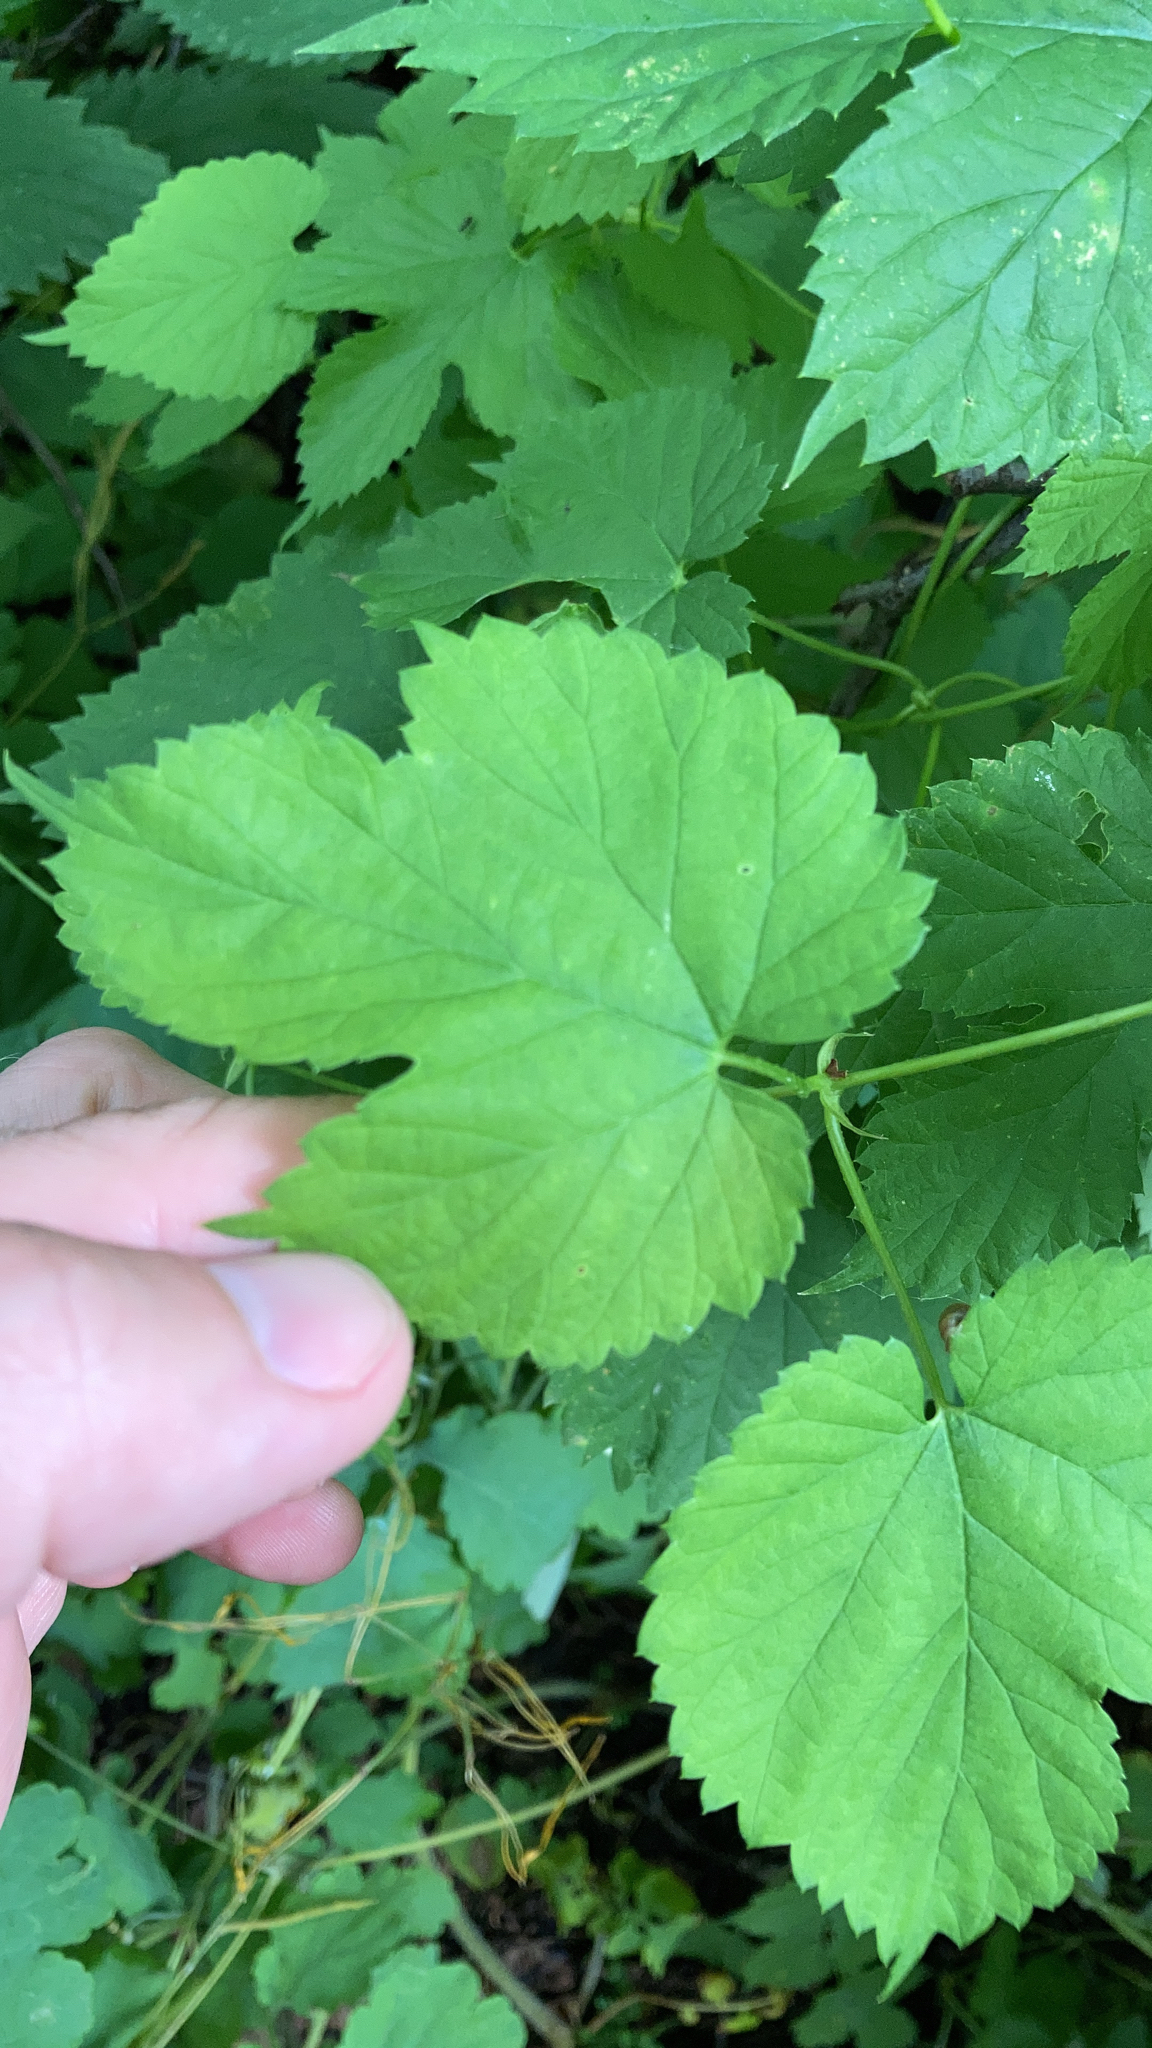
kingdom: Plantae
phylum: Tracheophyta
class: Magnoliopsida
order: Rosales
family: Cannabaceae
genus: Humulus
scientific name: Humulus lupulus
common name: Hop
